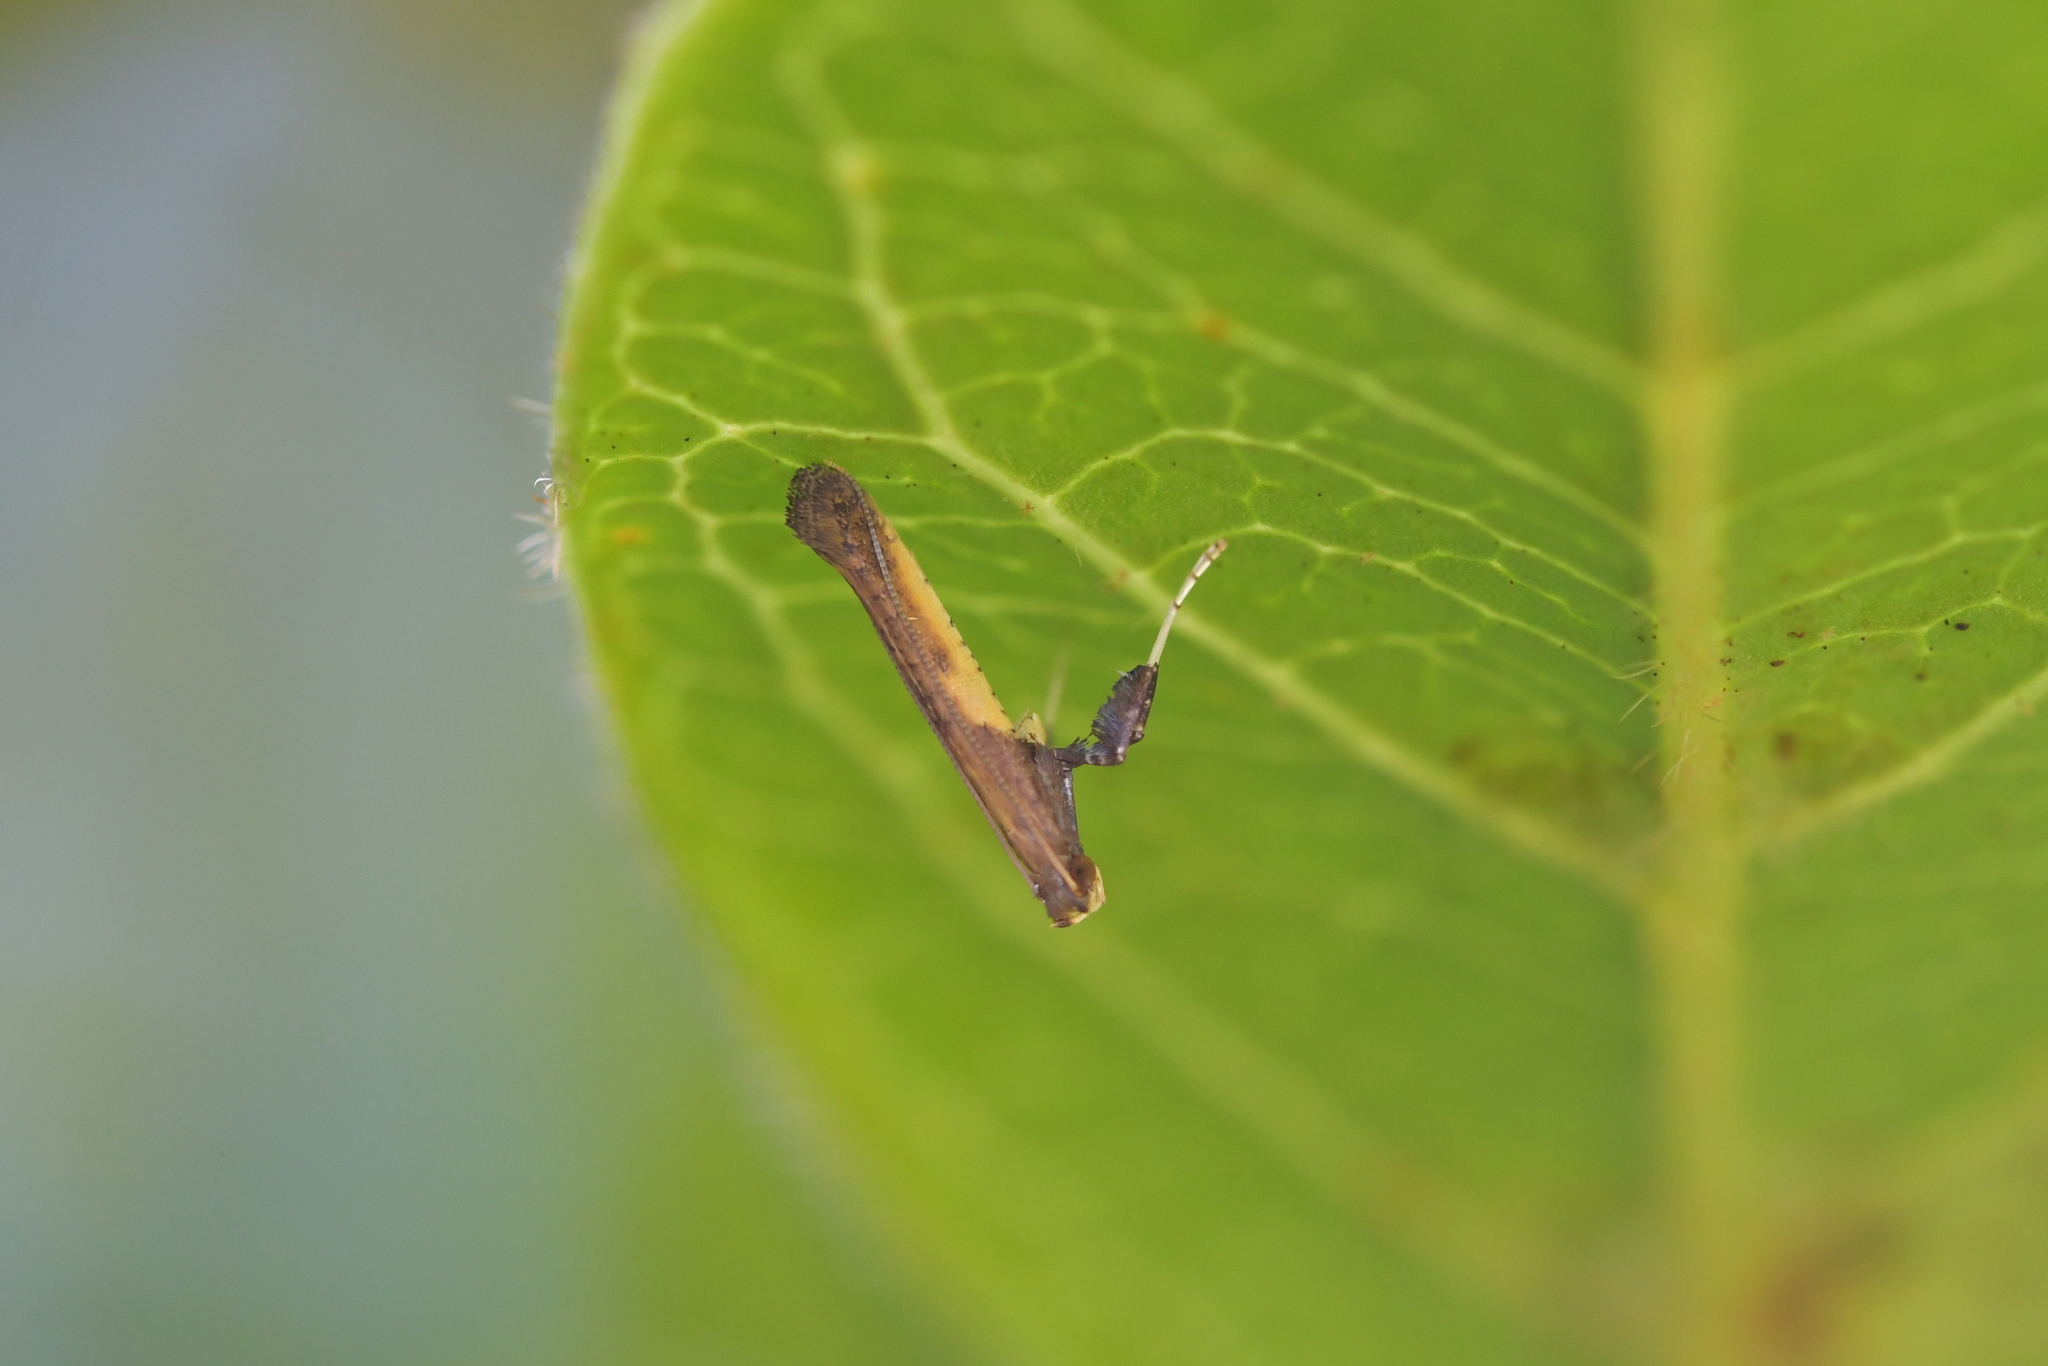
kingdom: Animalia
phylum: Arthropoda
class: Insecta
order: Lepidoptera
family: Gracillariidae
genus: Caloptilia
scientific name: Caloptilia azaleella
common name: Azalea leafminer
